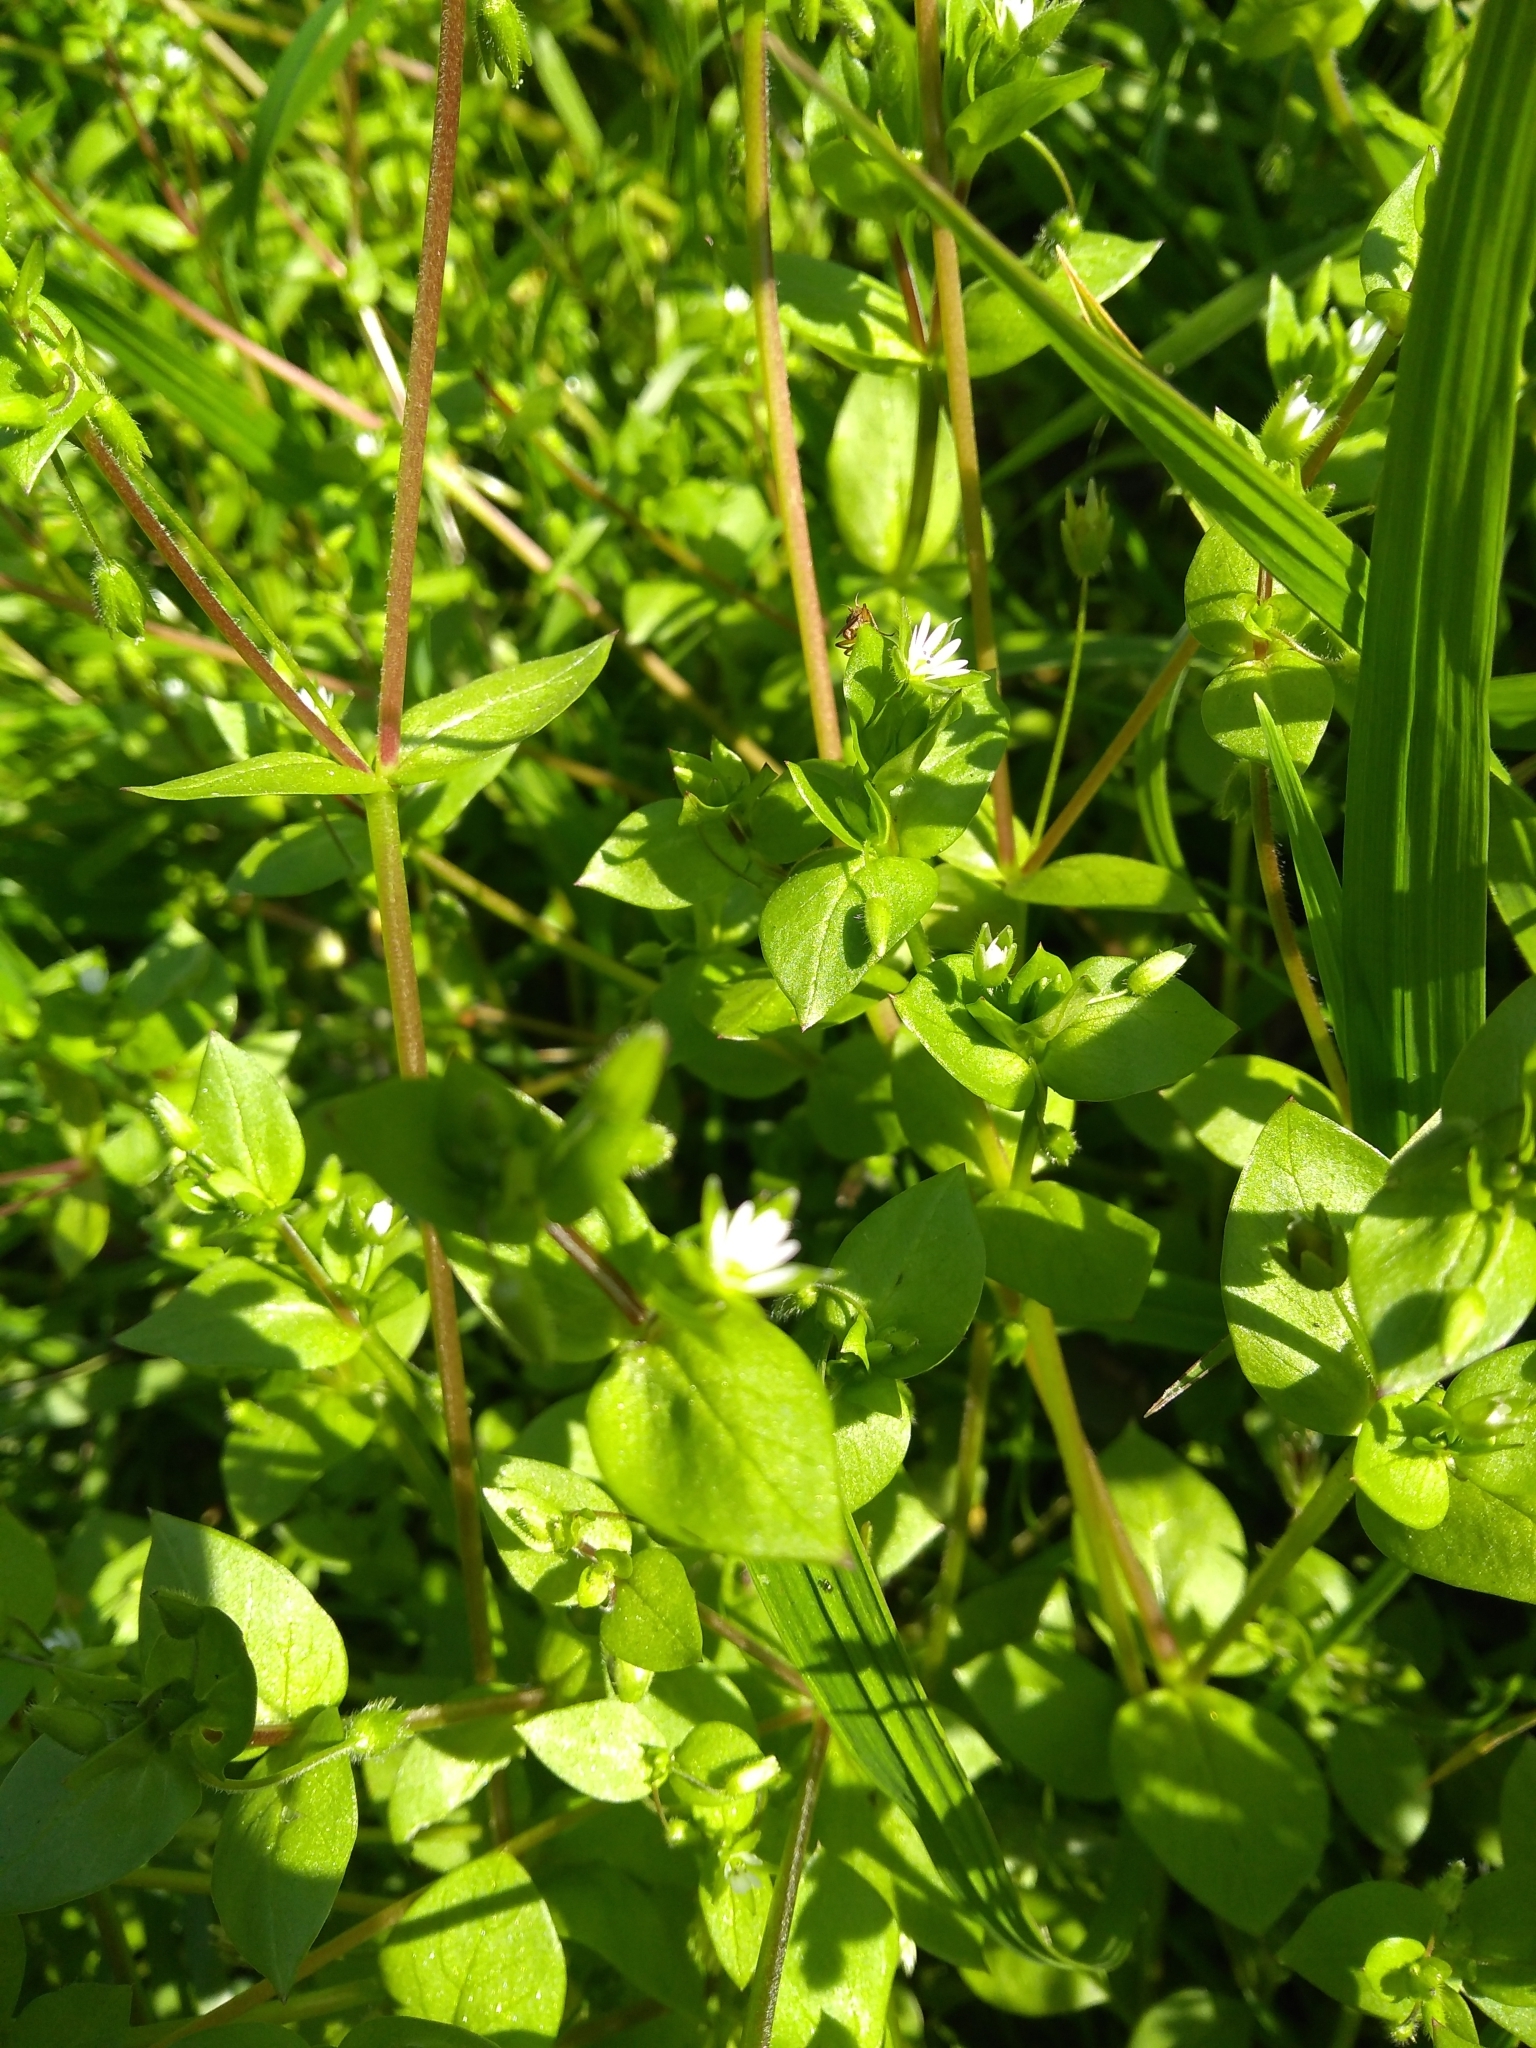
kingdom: Plantae
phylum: Tracheophyta
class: Magnoliopsida
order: Caryophyllales
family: Caryophyllaceae
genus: Stellaria
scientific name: Stellaria media
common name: Common chickweed
